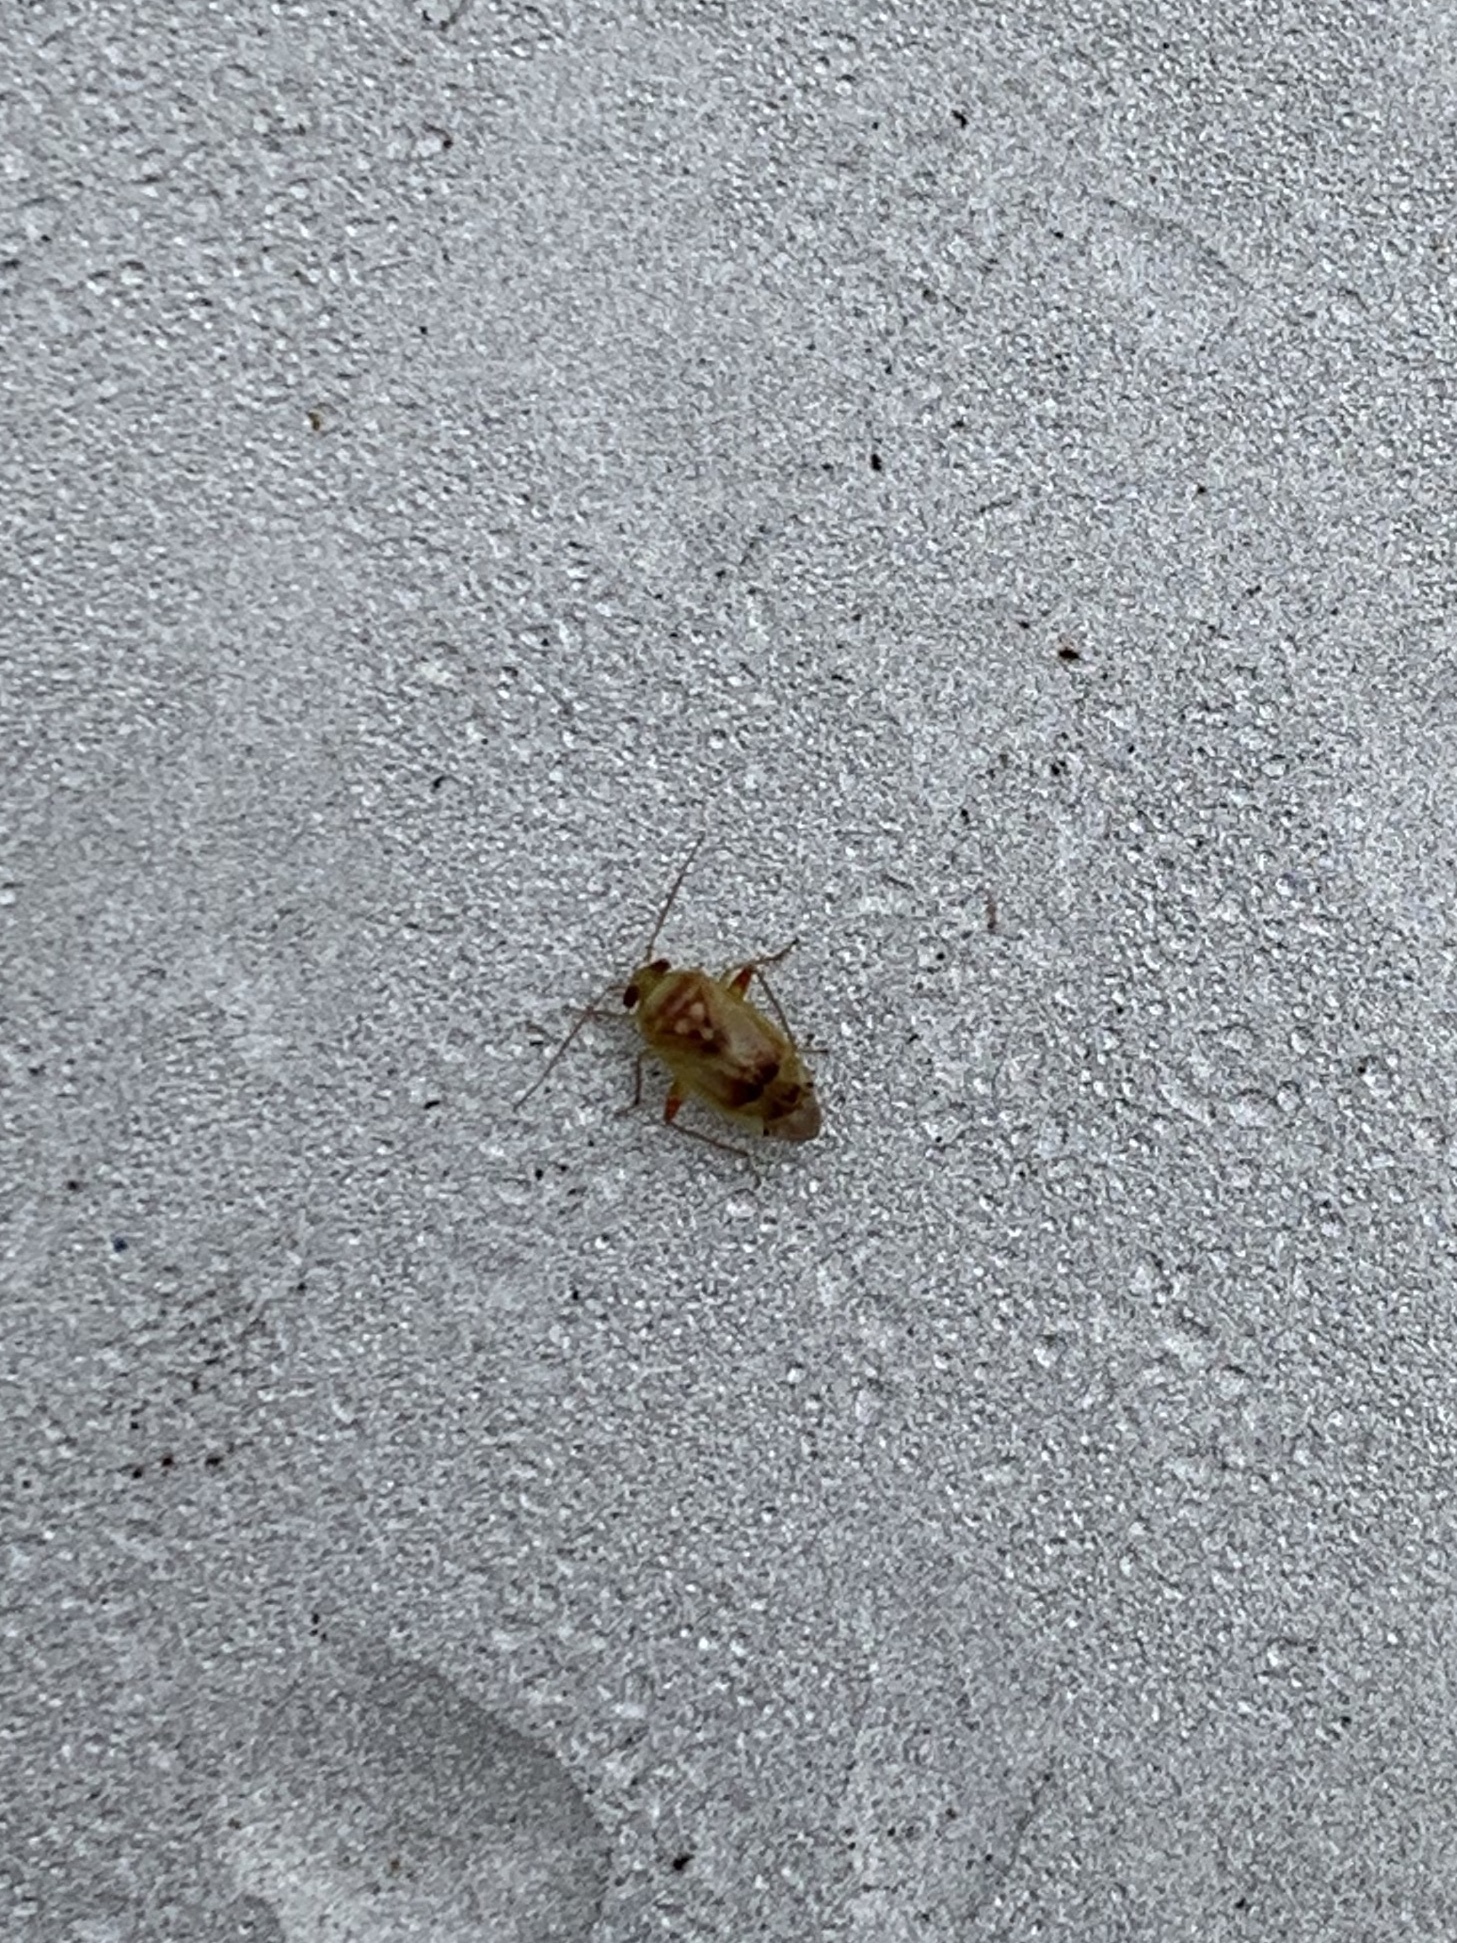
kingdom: Animalia
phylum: Arthropoda
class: Insecta
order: Hemiptera
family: Miridae
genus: Dagbertus
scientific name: Dagbertus
